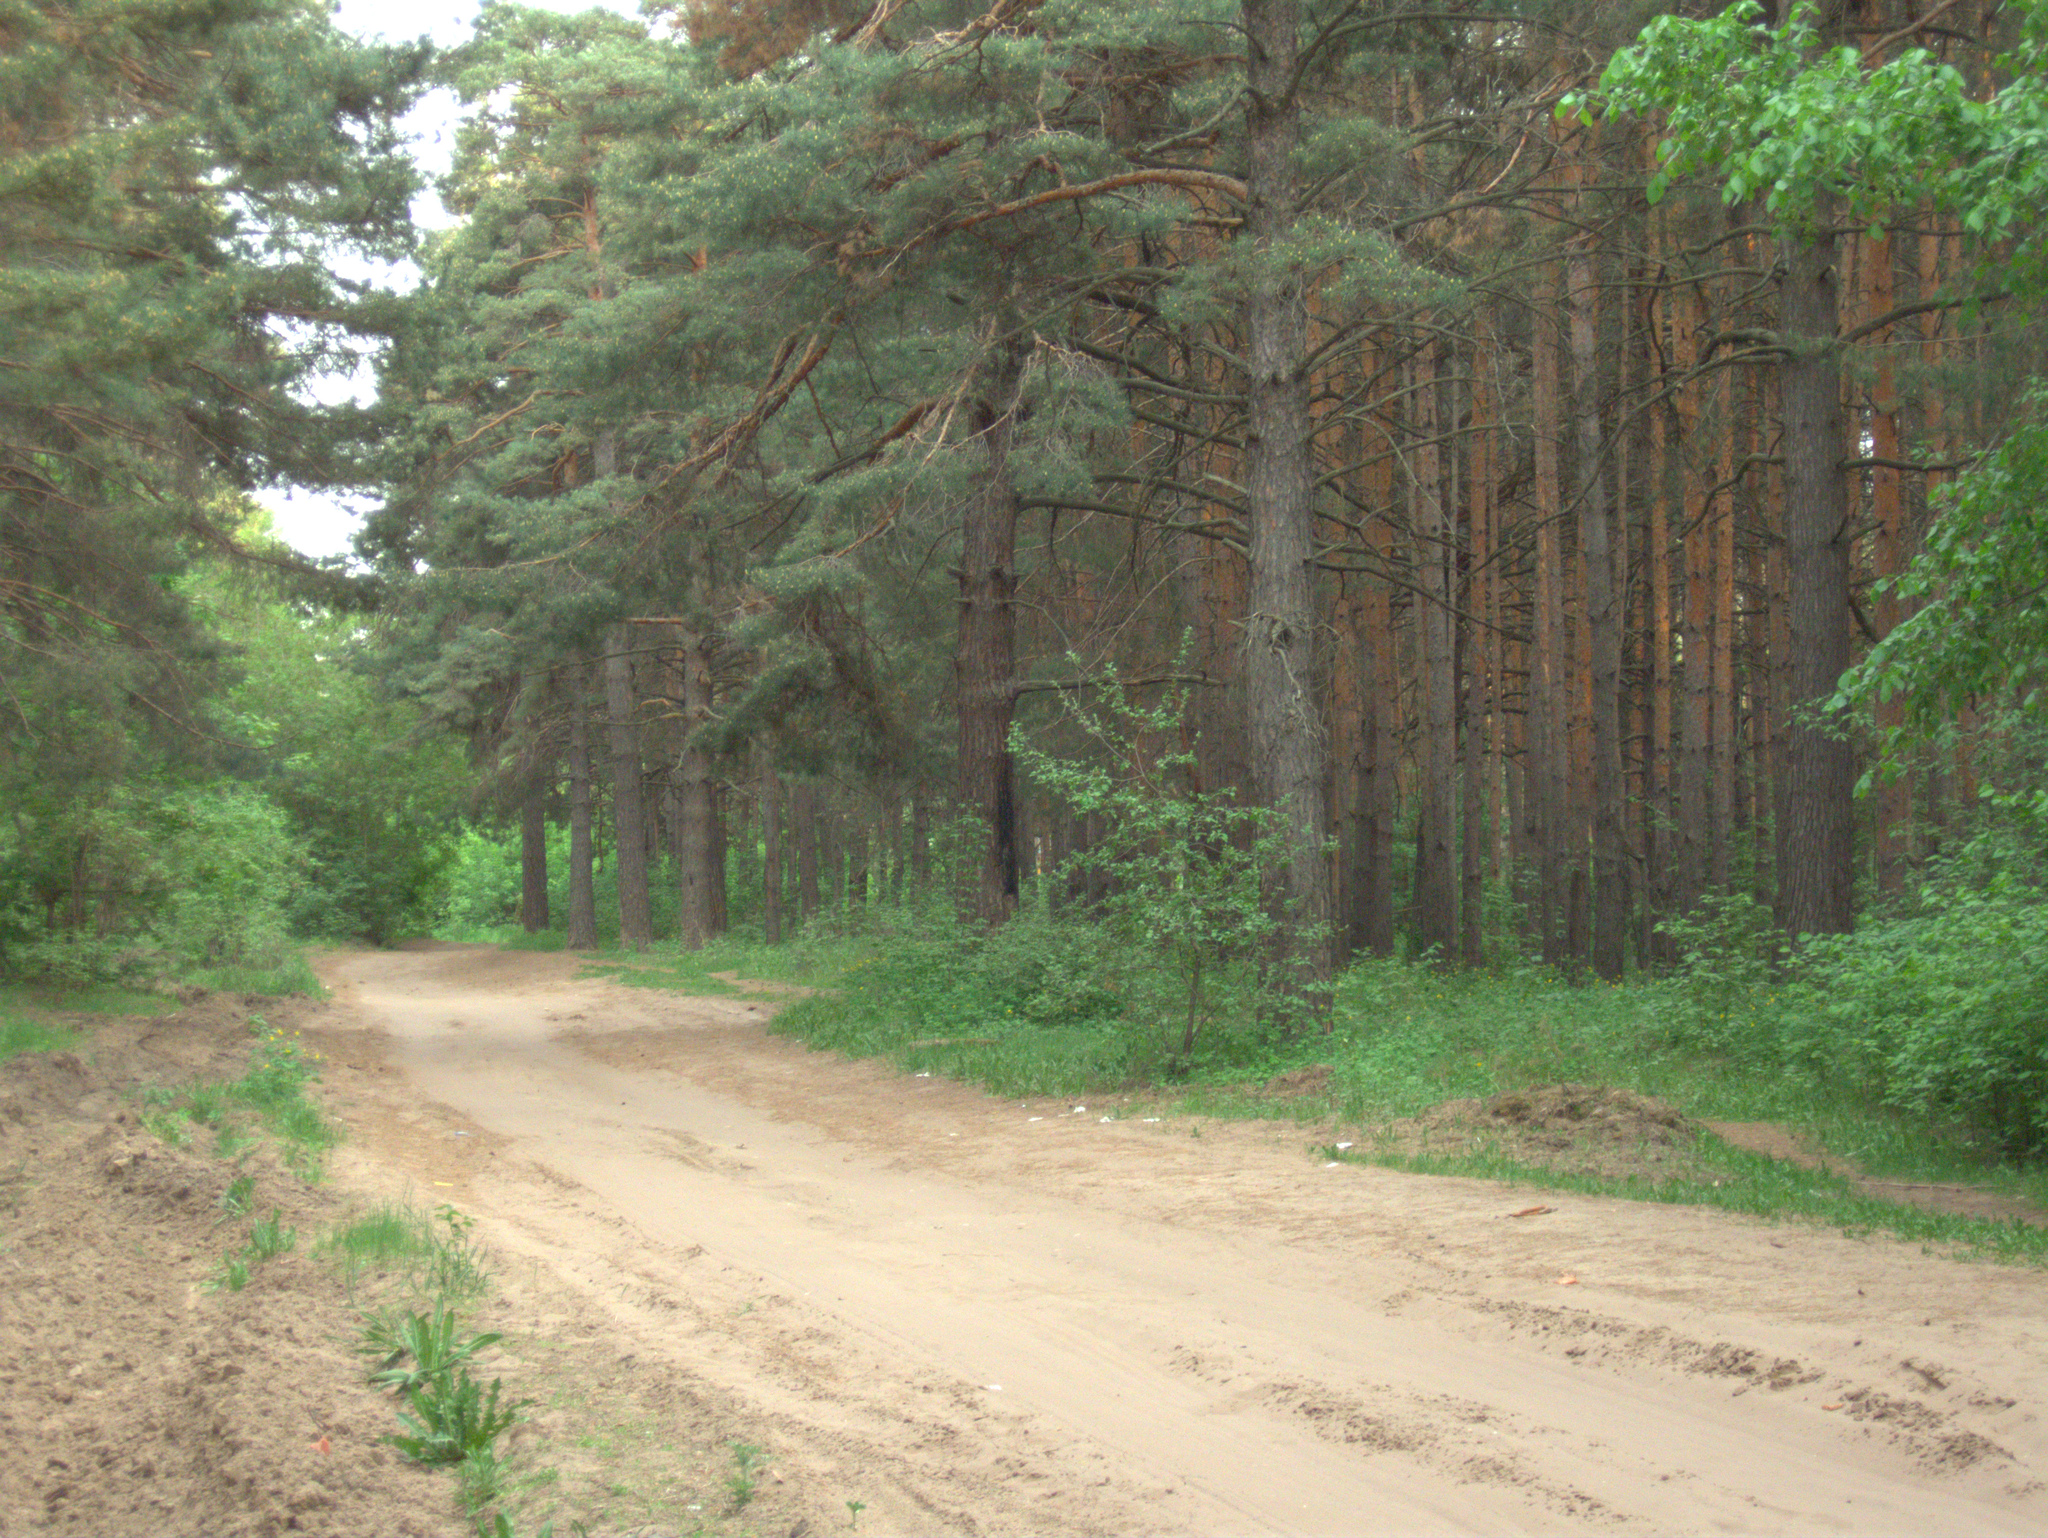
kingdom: Plantae
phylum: Tracheophyta
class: Pinopsida
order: Pinales
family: Pinaceae
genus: Pinus
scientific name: Pinus sylvestris
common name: Scots pine
